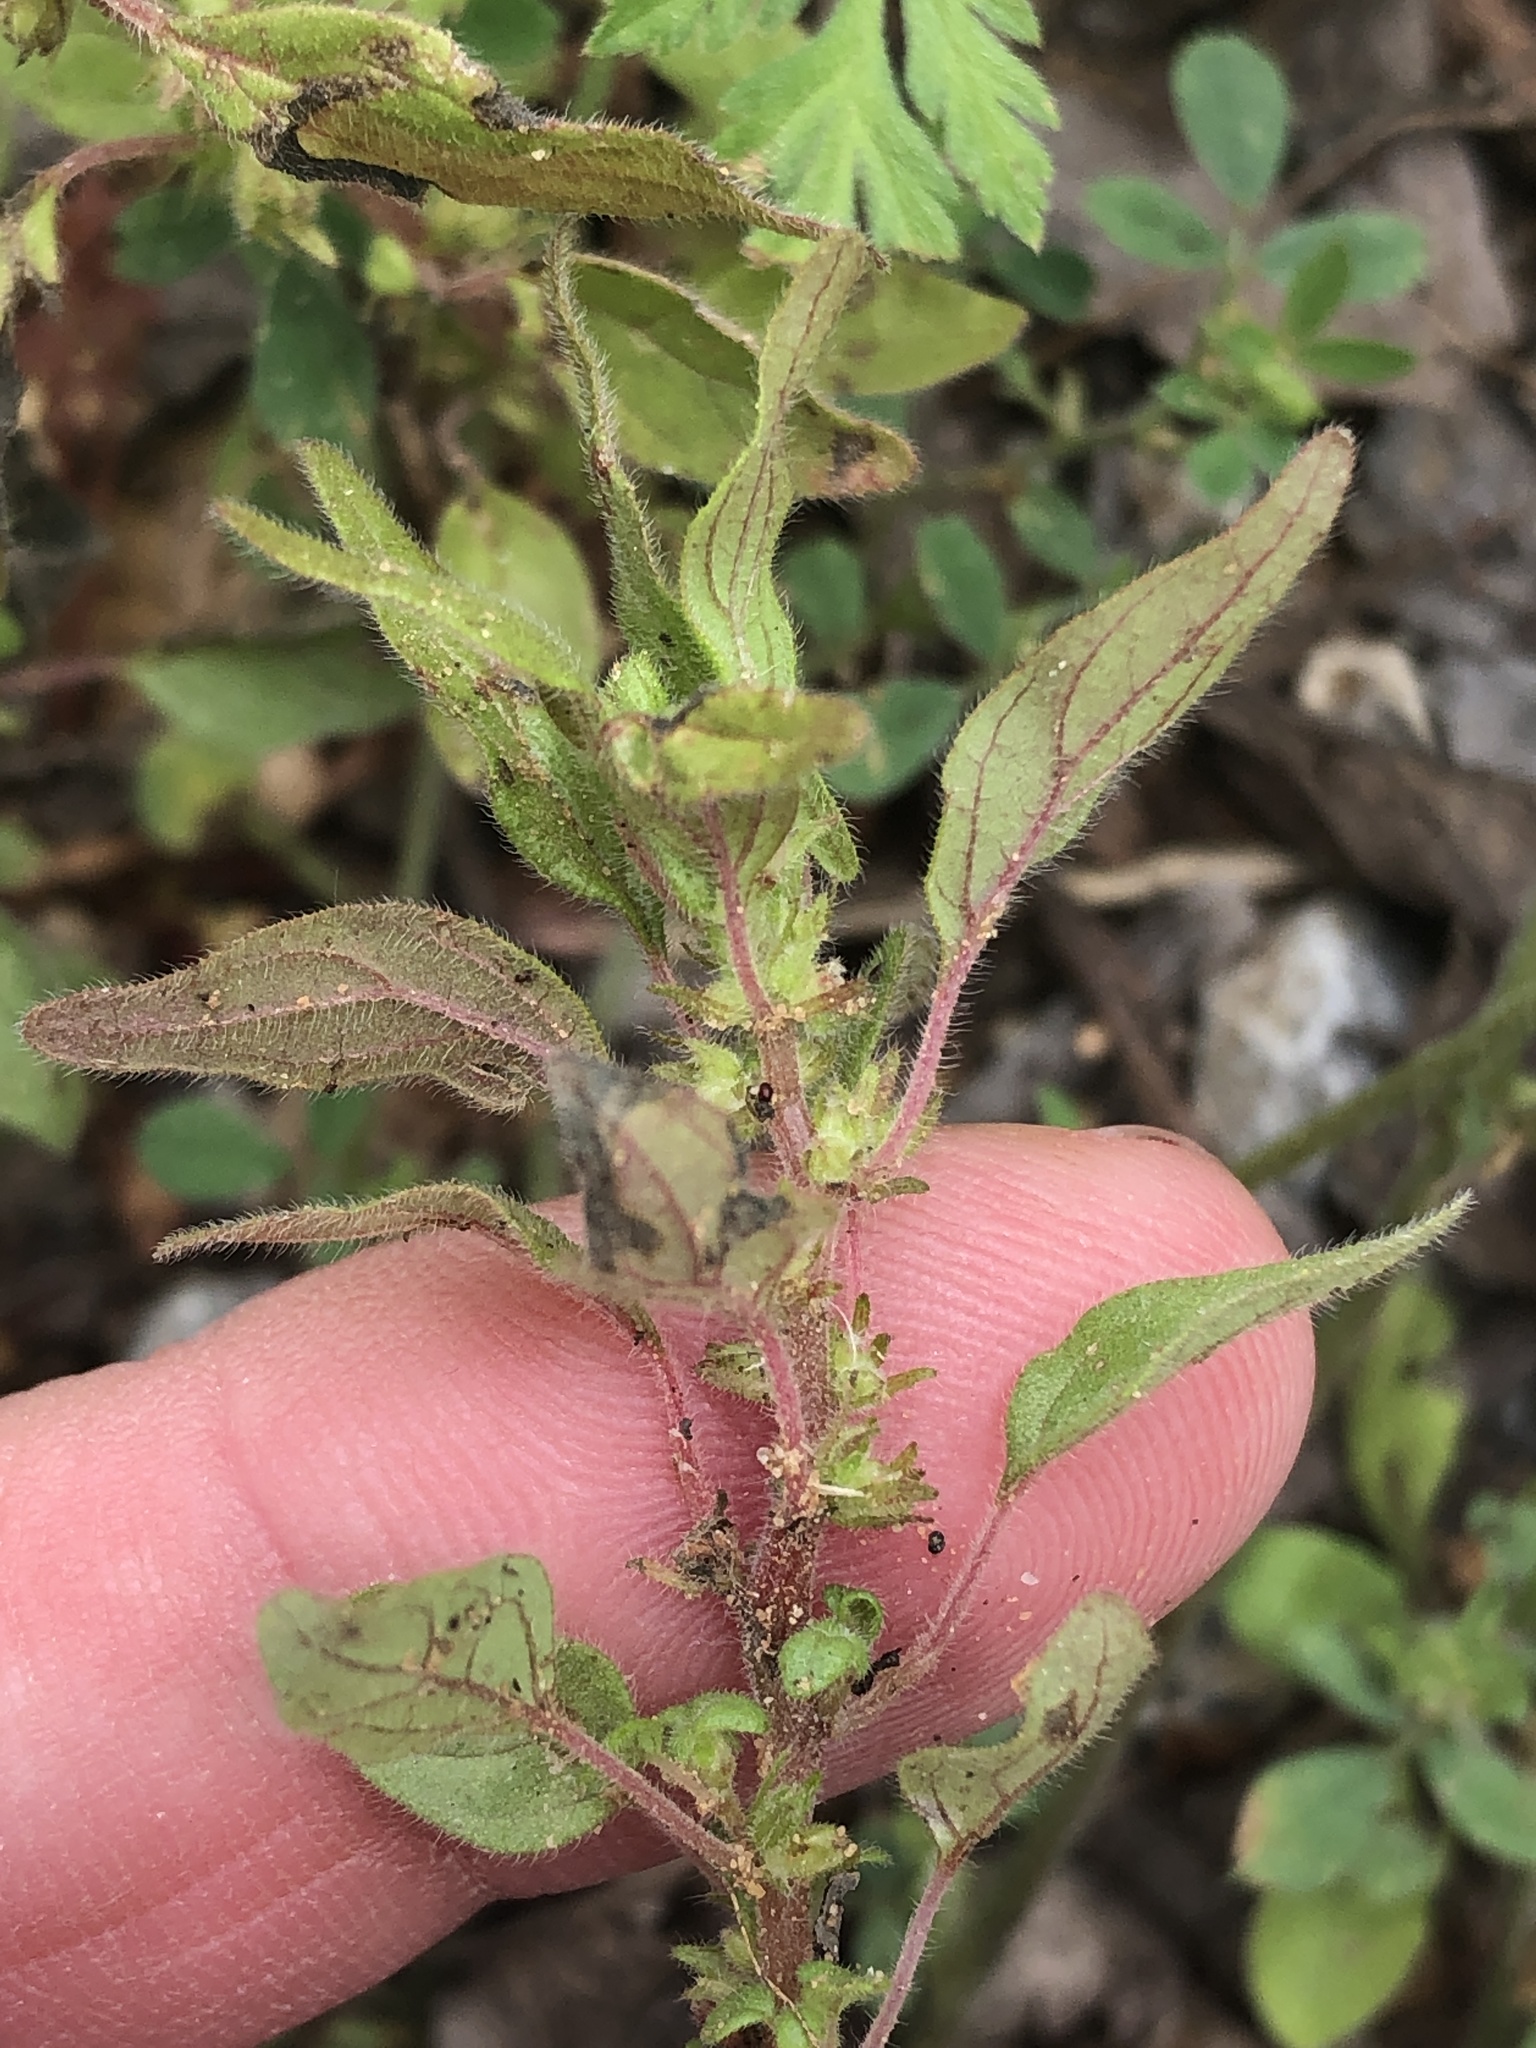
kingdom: Plantae
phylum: Tracheophyta
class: Magnoliopsida
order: Rosales
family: Urticaceae
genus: Parietaria
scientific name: Parietaria pensylvanica
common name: Pennsylvania pellitory
